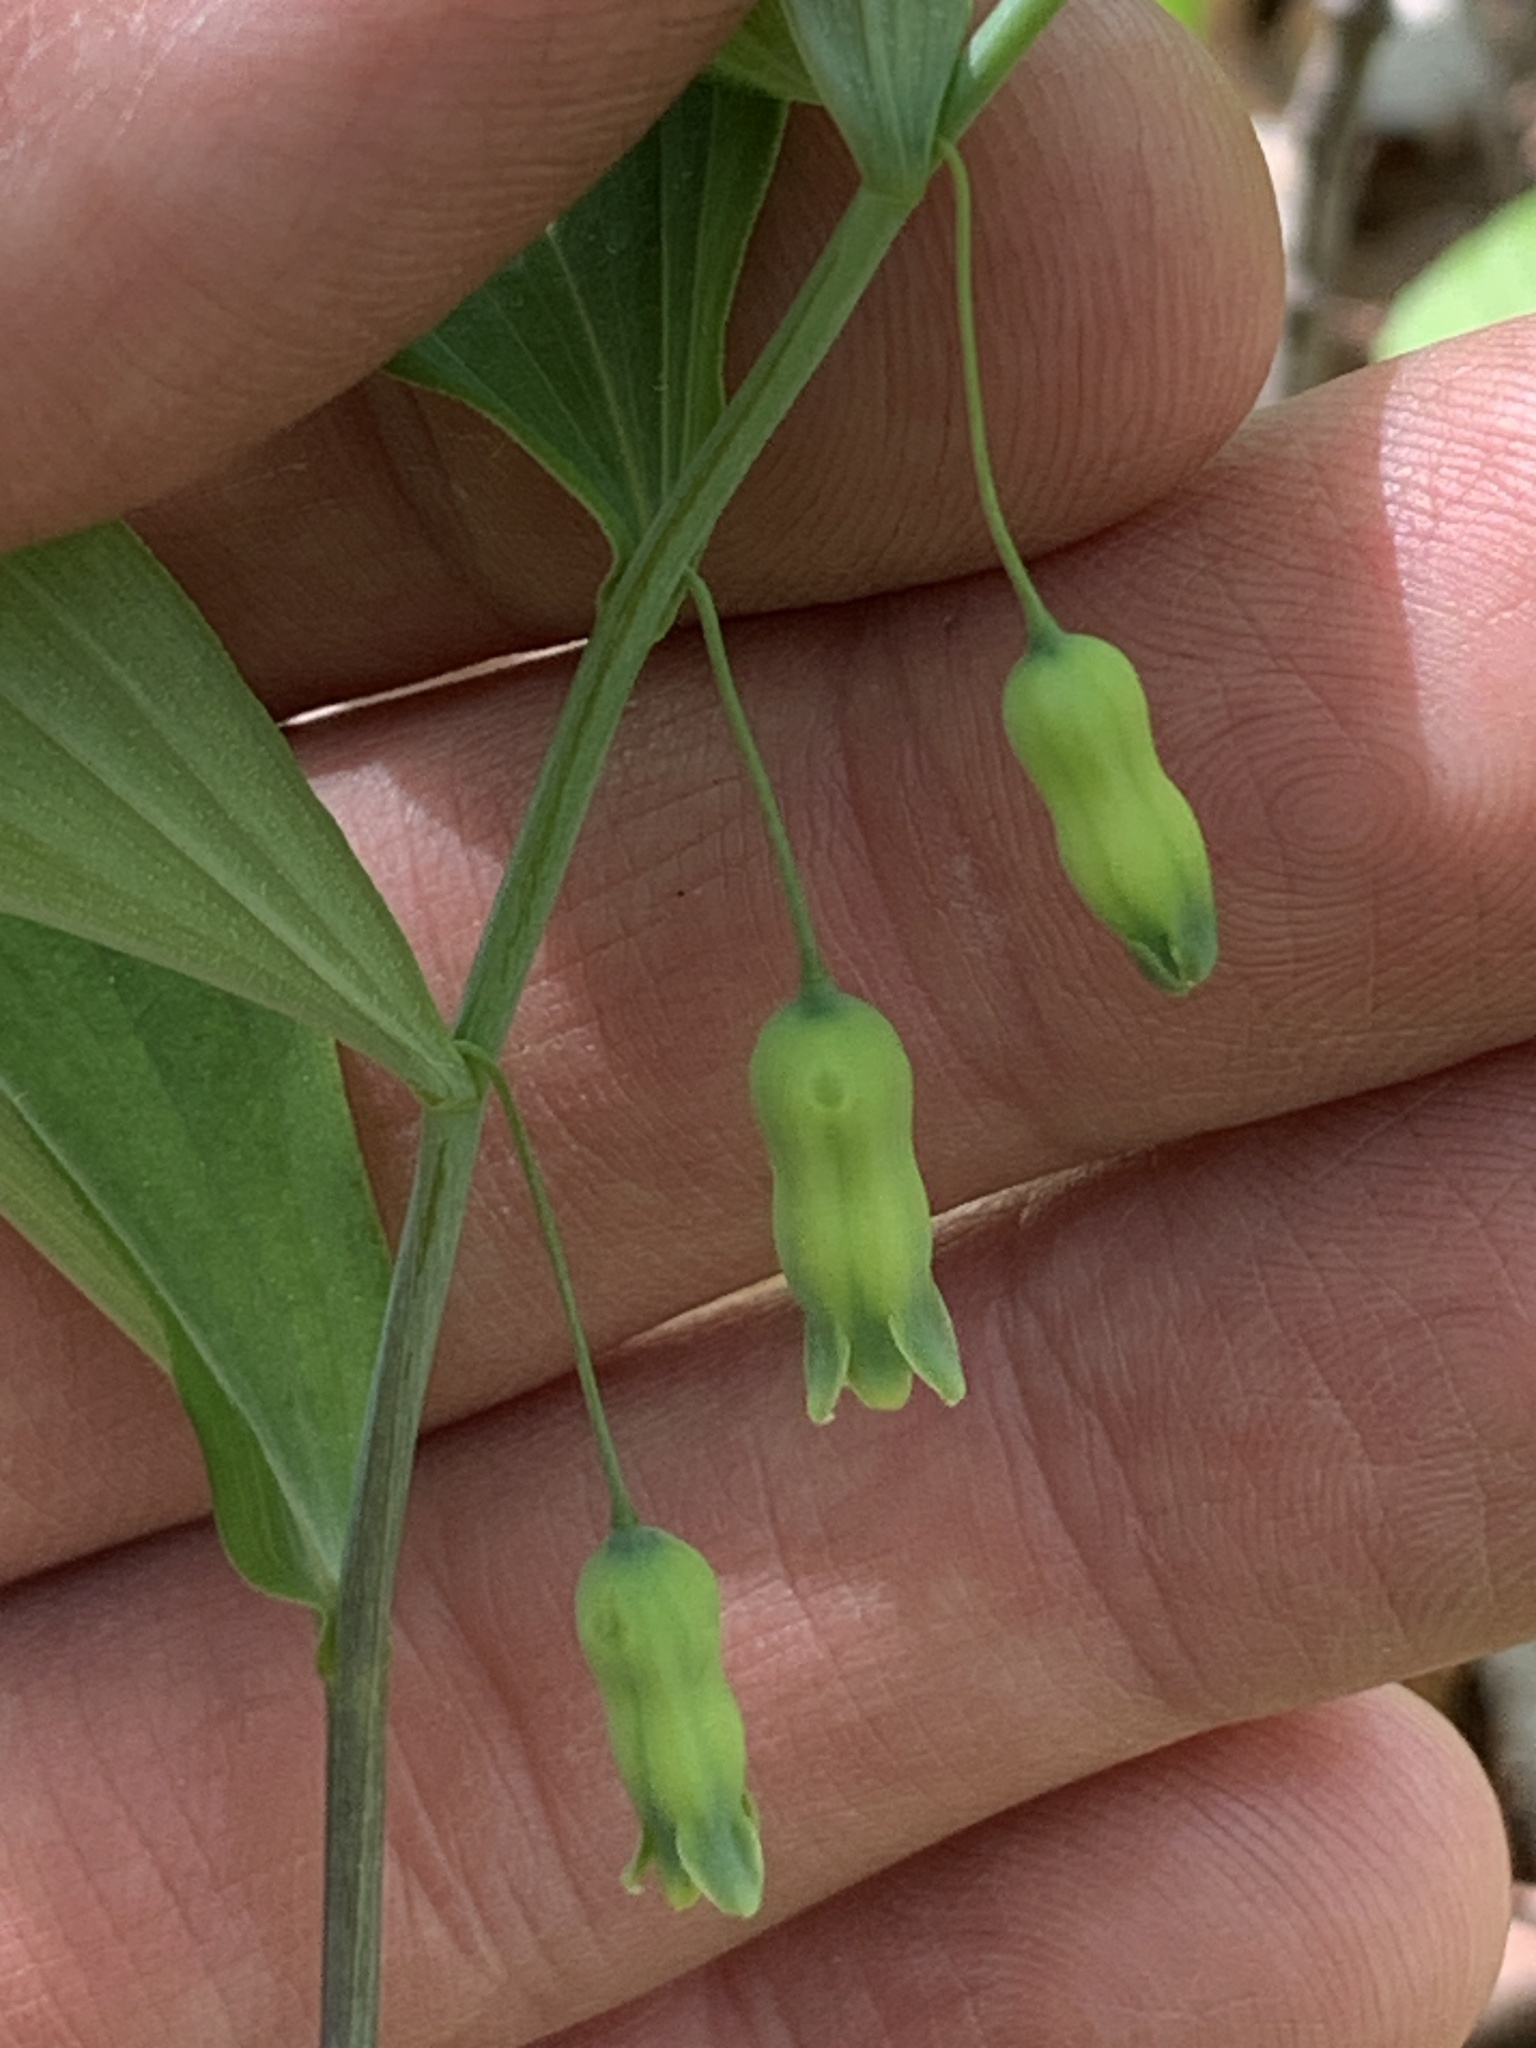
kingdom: Plantae
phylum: Tracheophyta
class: Liliopsida
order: Asparagales
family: Asparagaceae
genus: Polygonatum
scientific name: Polygonatum pubescens
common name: Downy solomon's seal
